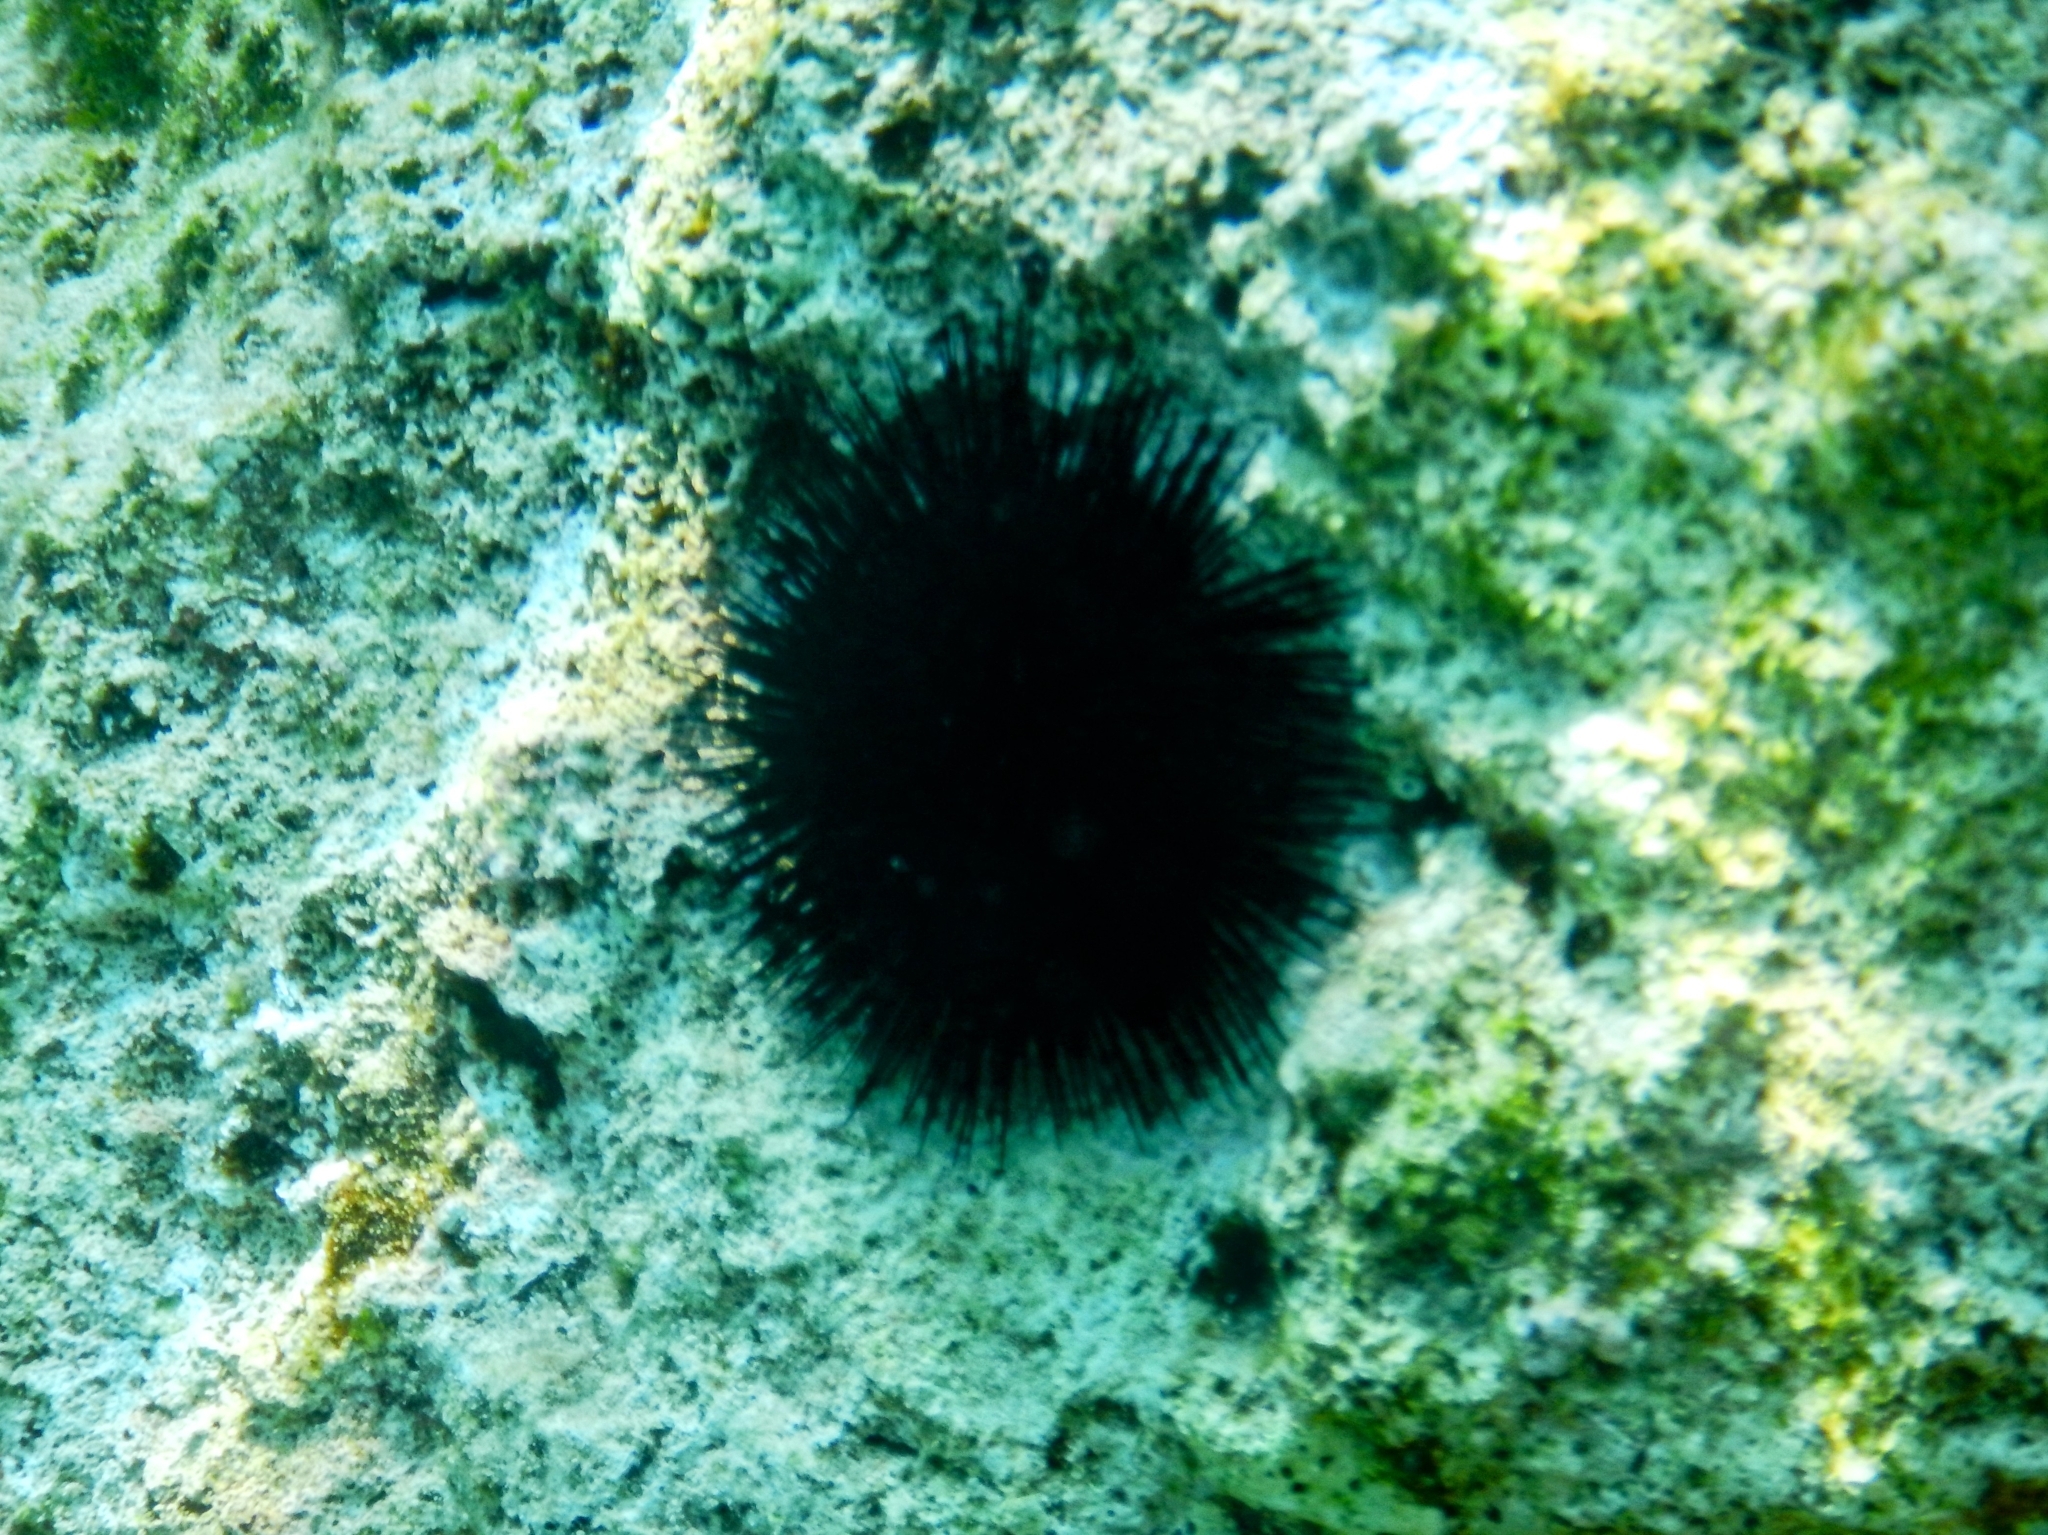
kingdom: Animalia
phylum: Echinodermata
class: Echinoidea
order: Arbacioida
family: Arbaciidae
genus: Arbacia
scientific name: Arbacia lixula
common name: Black sea urchin
